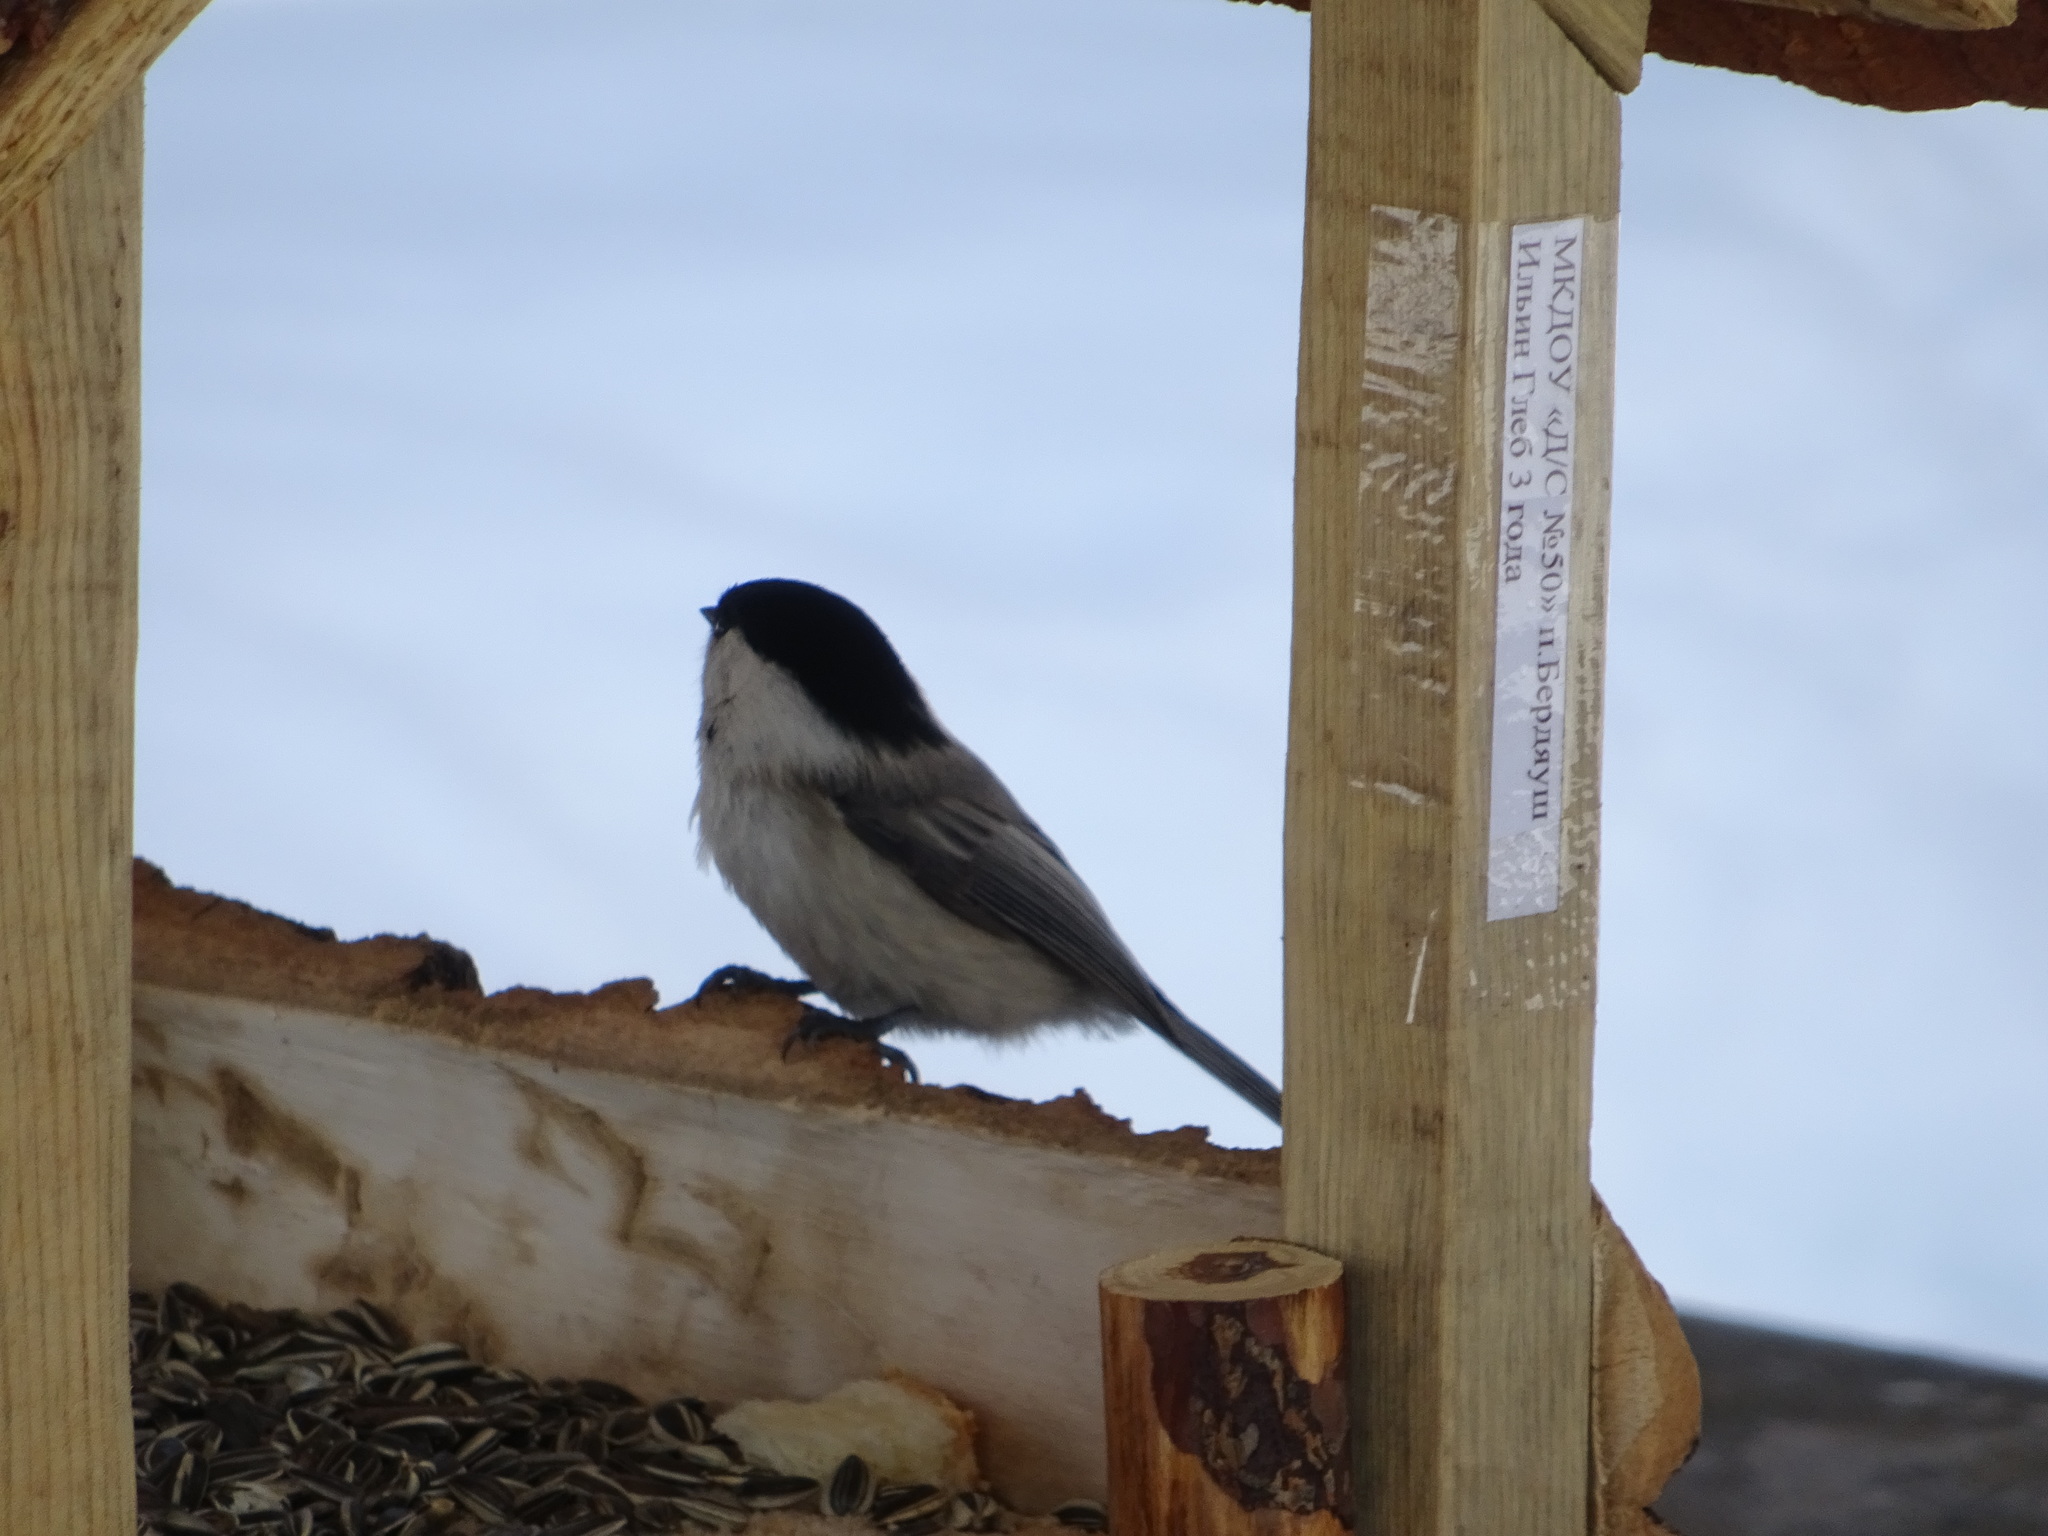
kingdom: Animalia
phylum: Chordata
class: Aves
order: Passeriformes
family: Paridae
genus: Poecile
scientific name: Poecile montanus
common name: Willow tit
